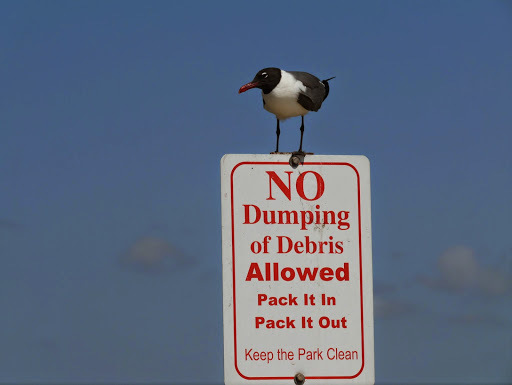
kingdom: Animalia
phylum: Chordata
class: Aves
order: Charadriiformes
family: Laridae
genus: Leucophaeus
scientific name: Leucophaeus atricilla
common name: Laughing gull
